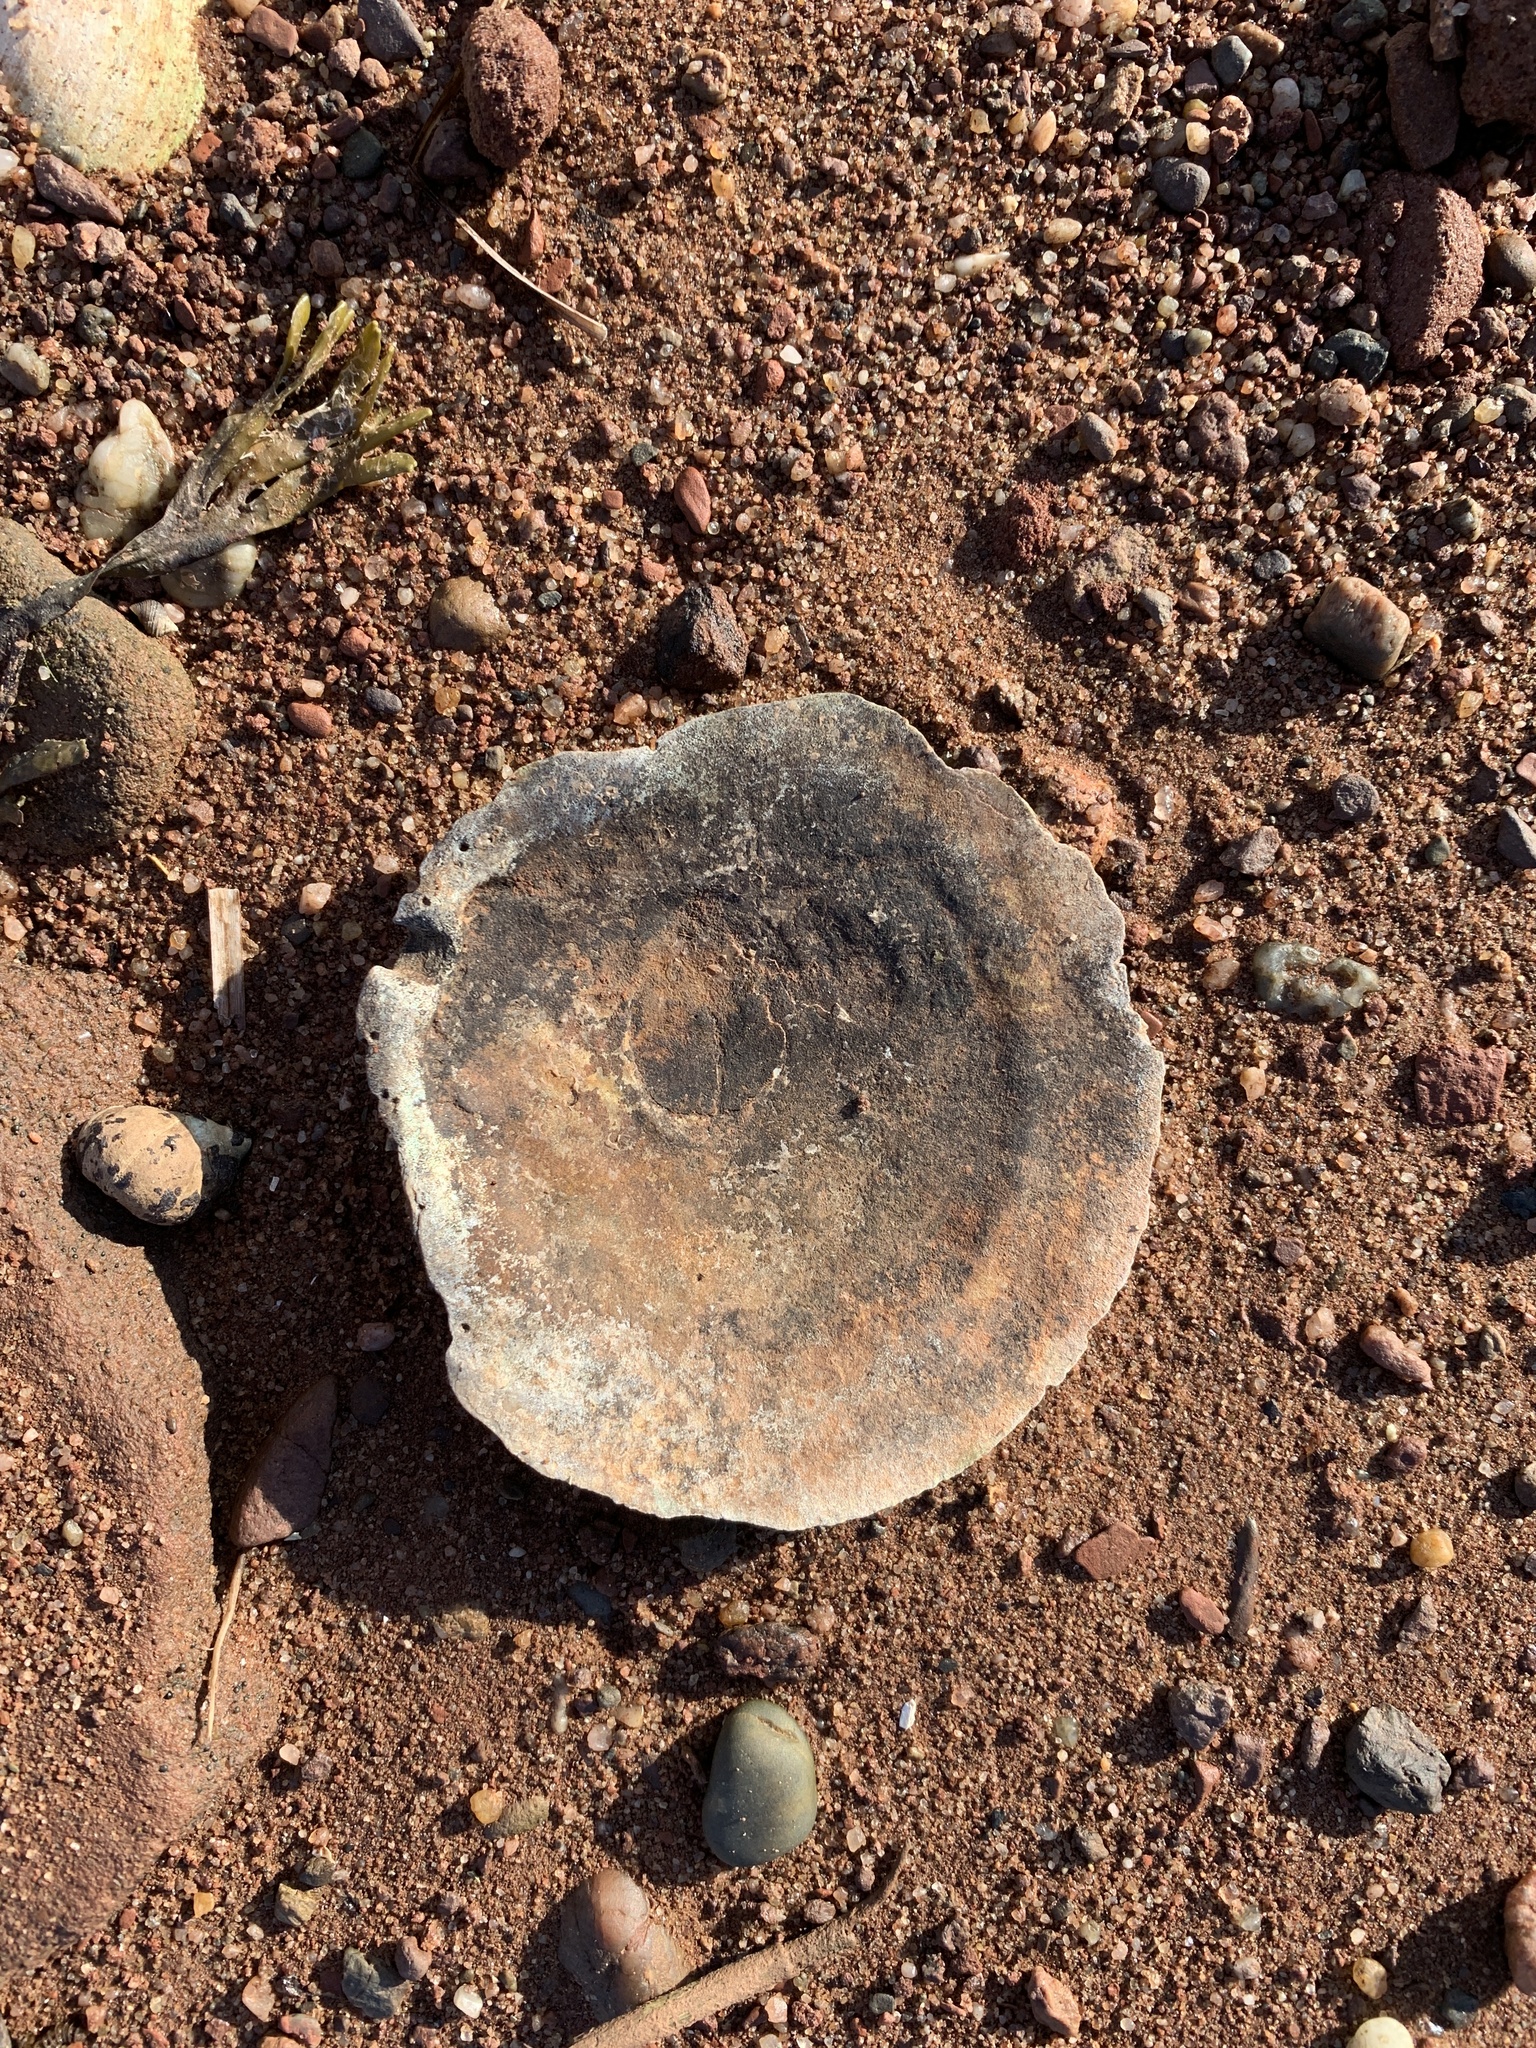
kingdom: Animalia
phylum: Mollusca
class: Bivalvia
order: Pectinida
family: Pectinidae
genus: Placopecten
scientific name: Placopecten magellanicus
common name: American sea scallop
